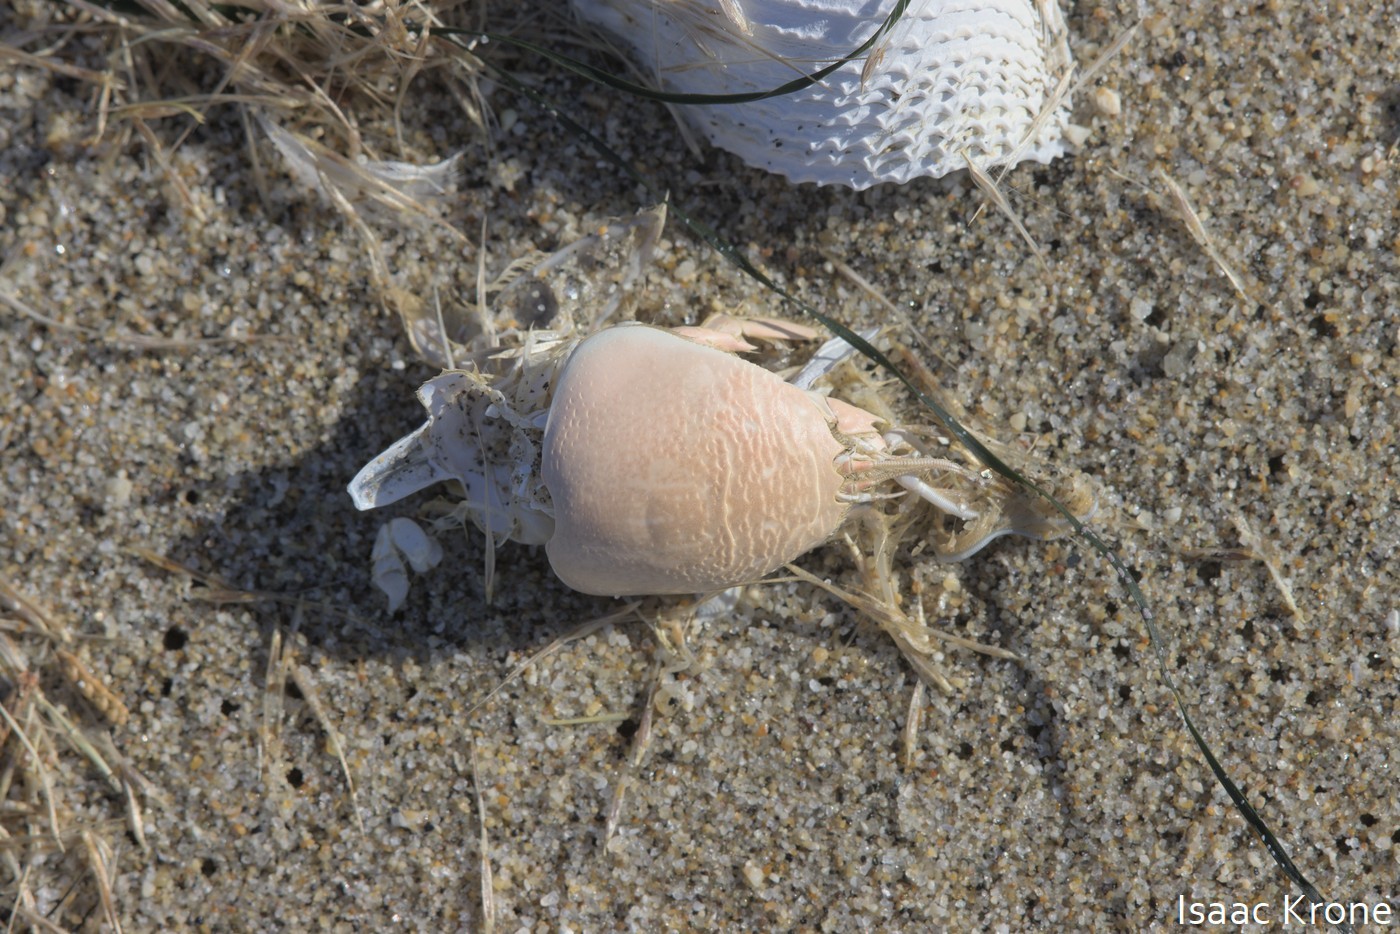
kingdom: Animalia
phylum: Arthropoda
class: Malacostraca
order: Decapoda
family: Hippidae
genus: Emerita
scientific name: Emerita analoga
